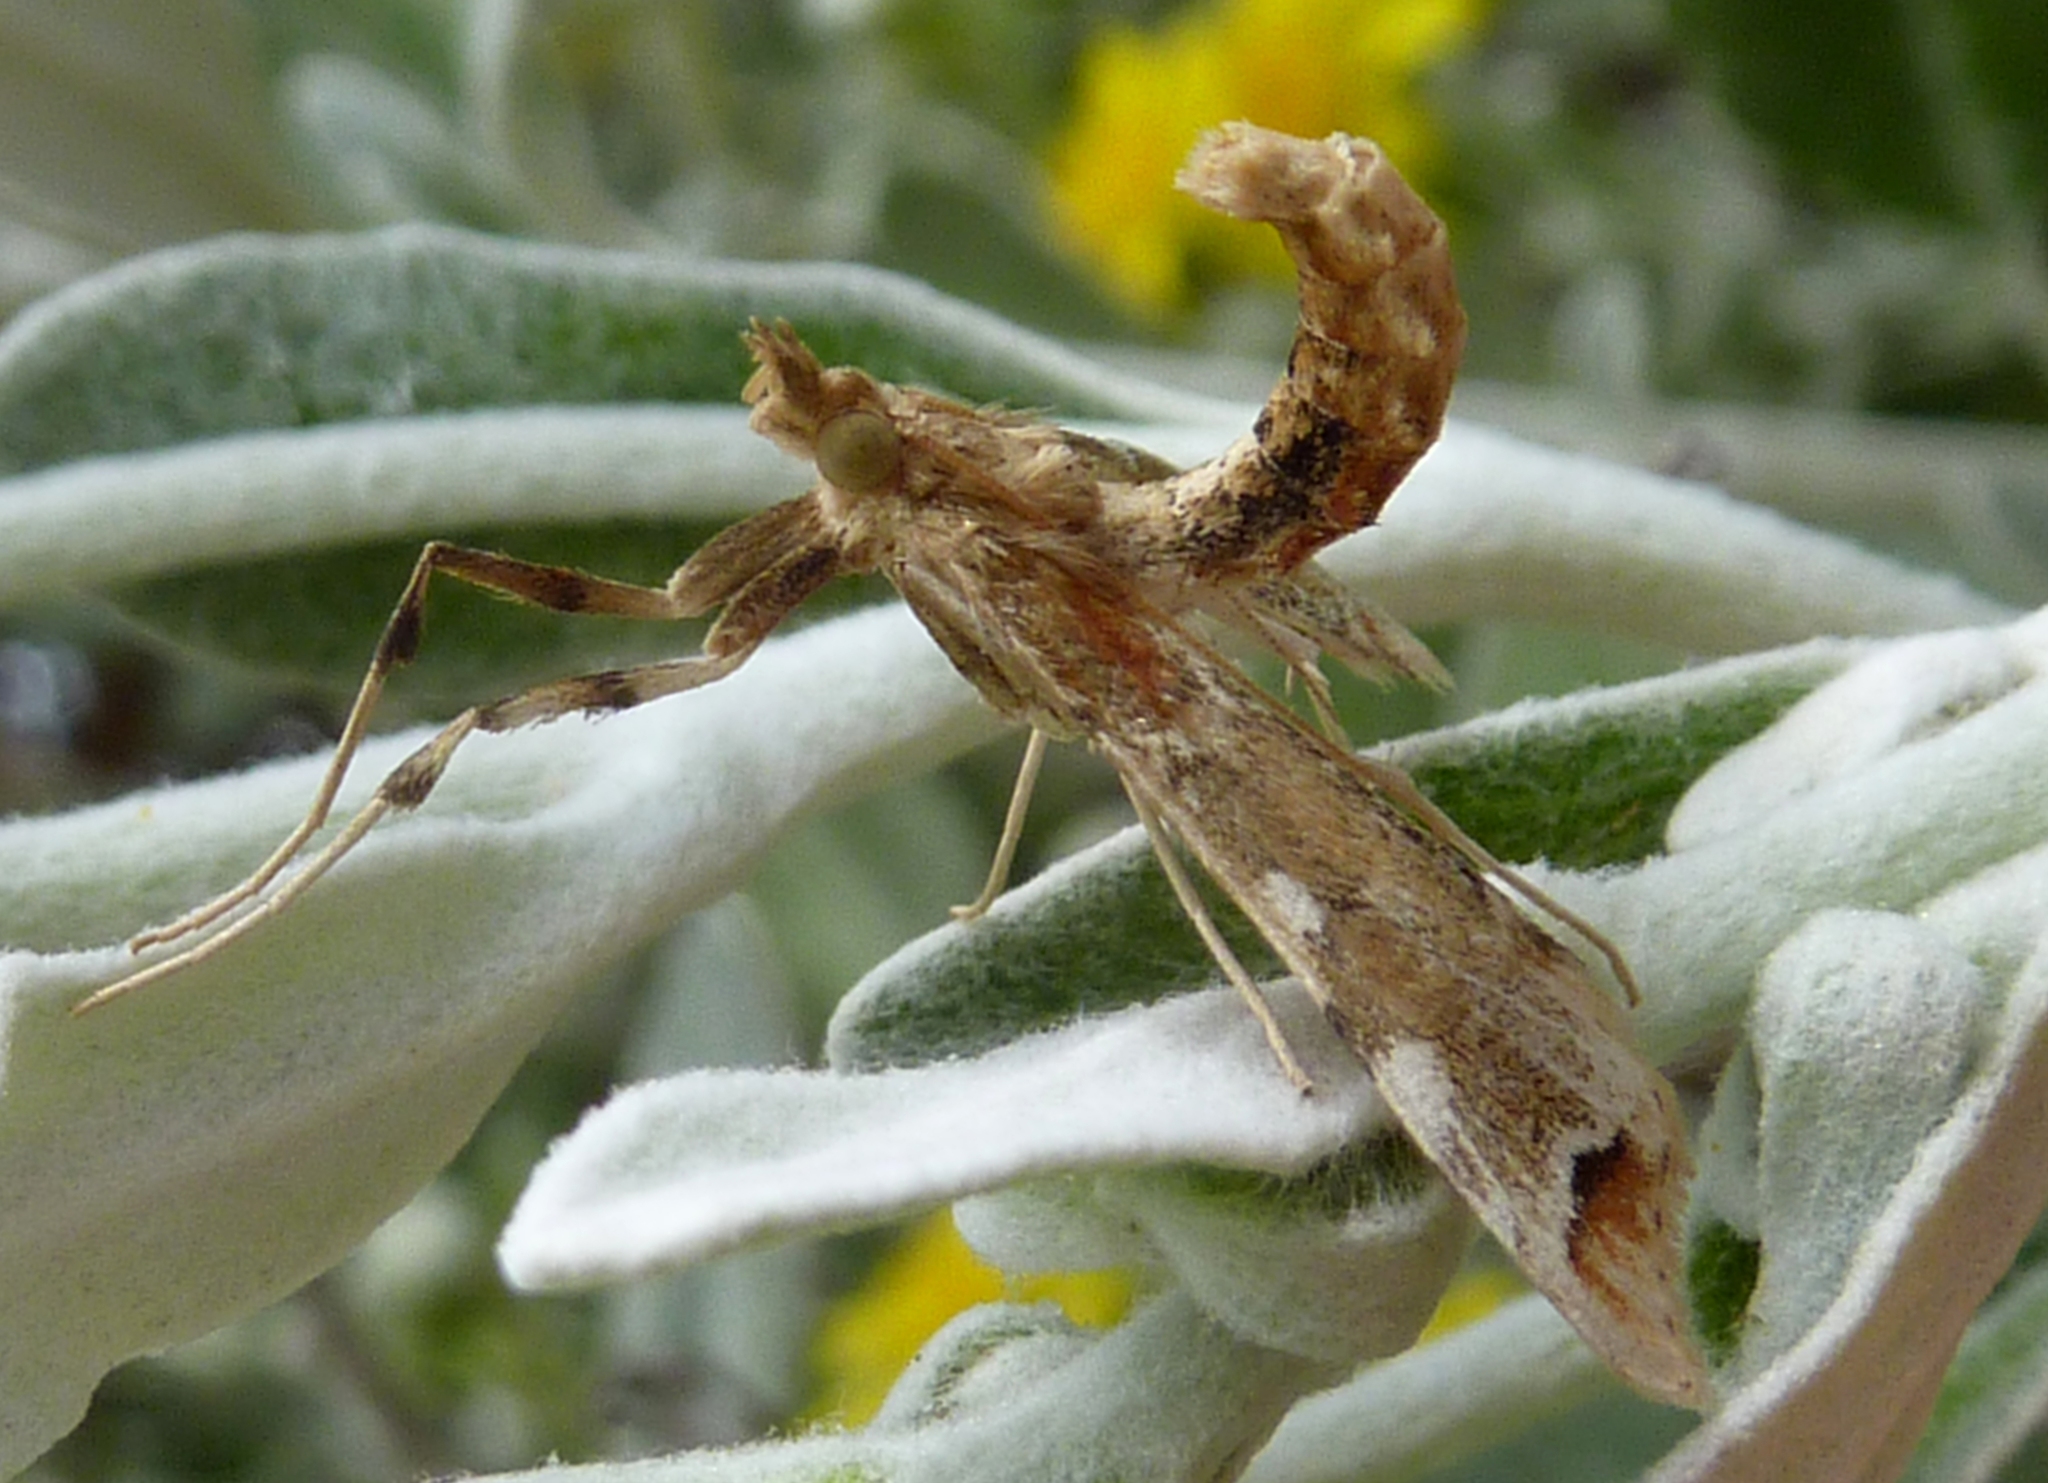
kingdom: Animalia
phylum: Arthropoda
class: Insecta
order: Lepidoptera
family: Crambidae
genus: Sceliodes
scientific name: Sceliodes cordalis
